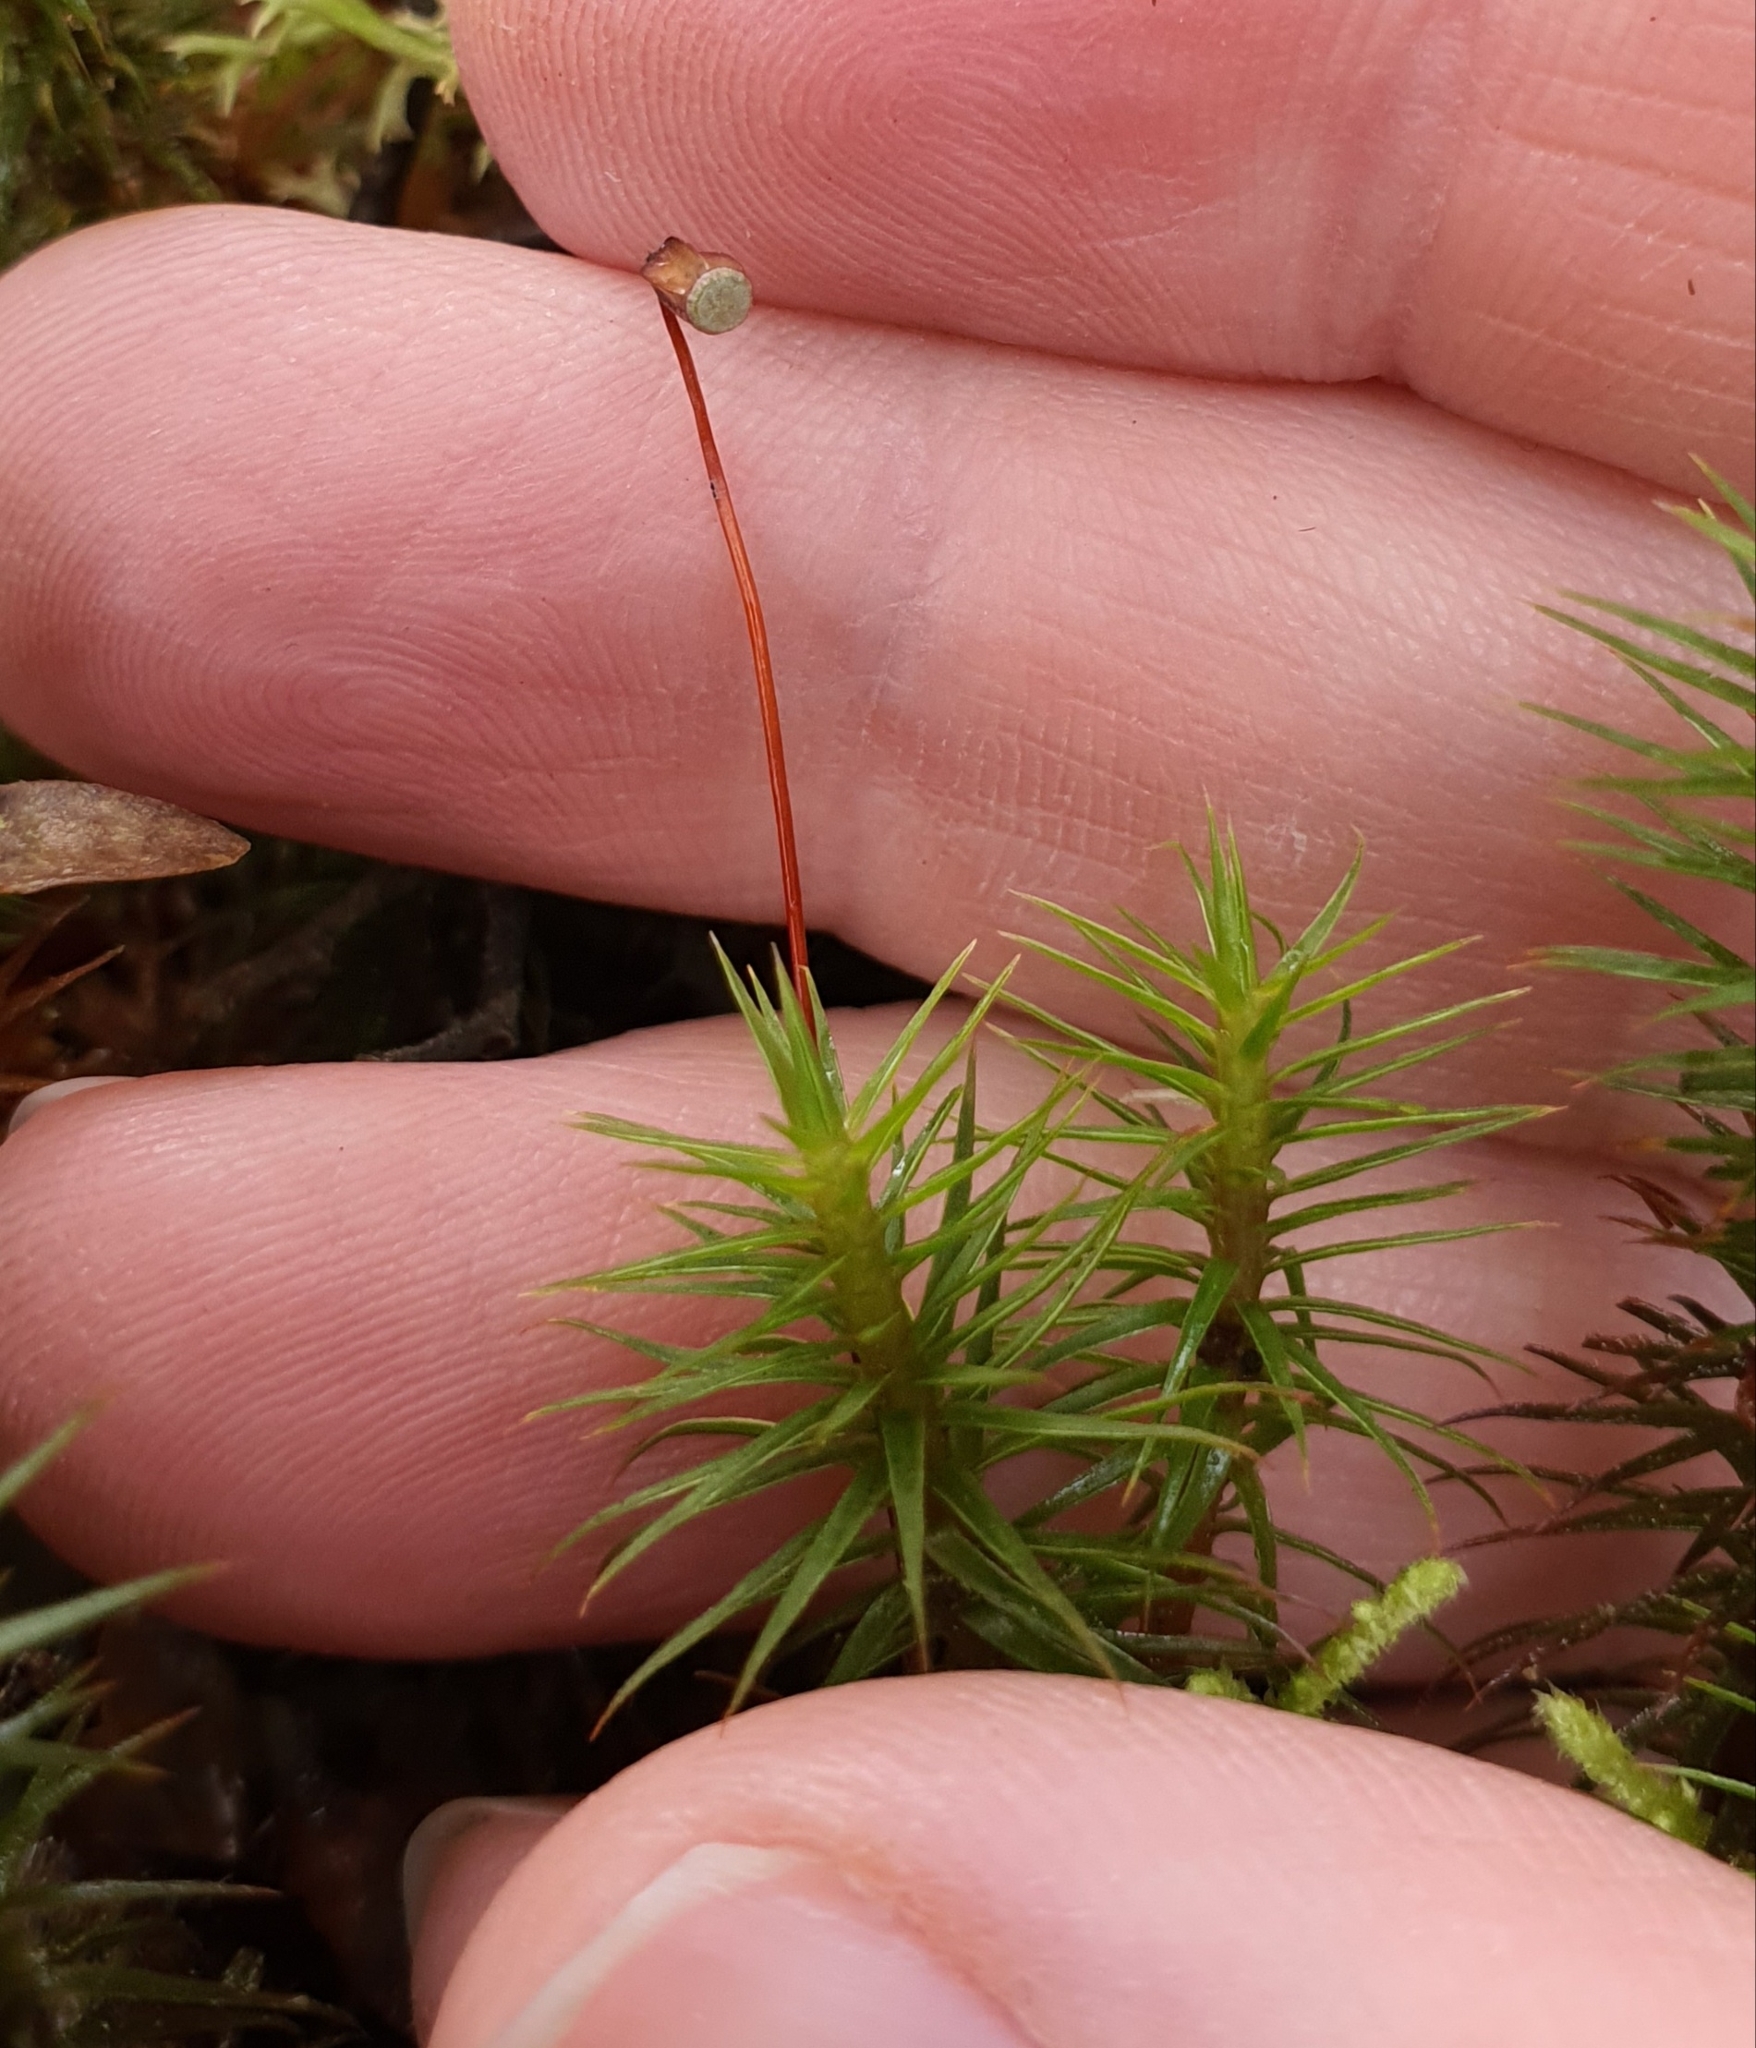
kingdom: Plantae
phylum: Bryophyta
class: Polytrichopsida
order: Polytrichales
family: Polytrichaceae
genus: Polytrichum
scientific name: Polytrichum juniperinum
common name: Juniper haircap moss
